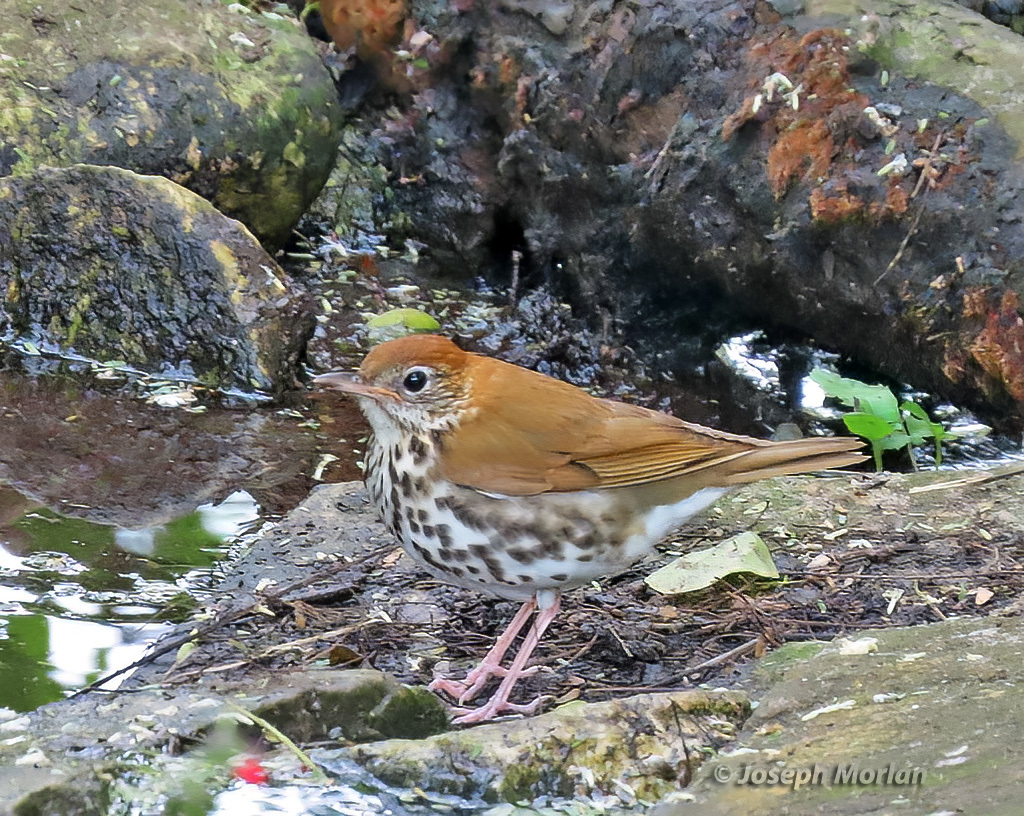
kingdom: Animalia
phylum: Chordata
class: Aves
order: Passeriformes
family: Turdidae
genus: Hylocichla
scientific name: Hylocichla mustelina
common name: Wood thrush
